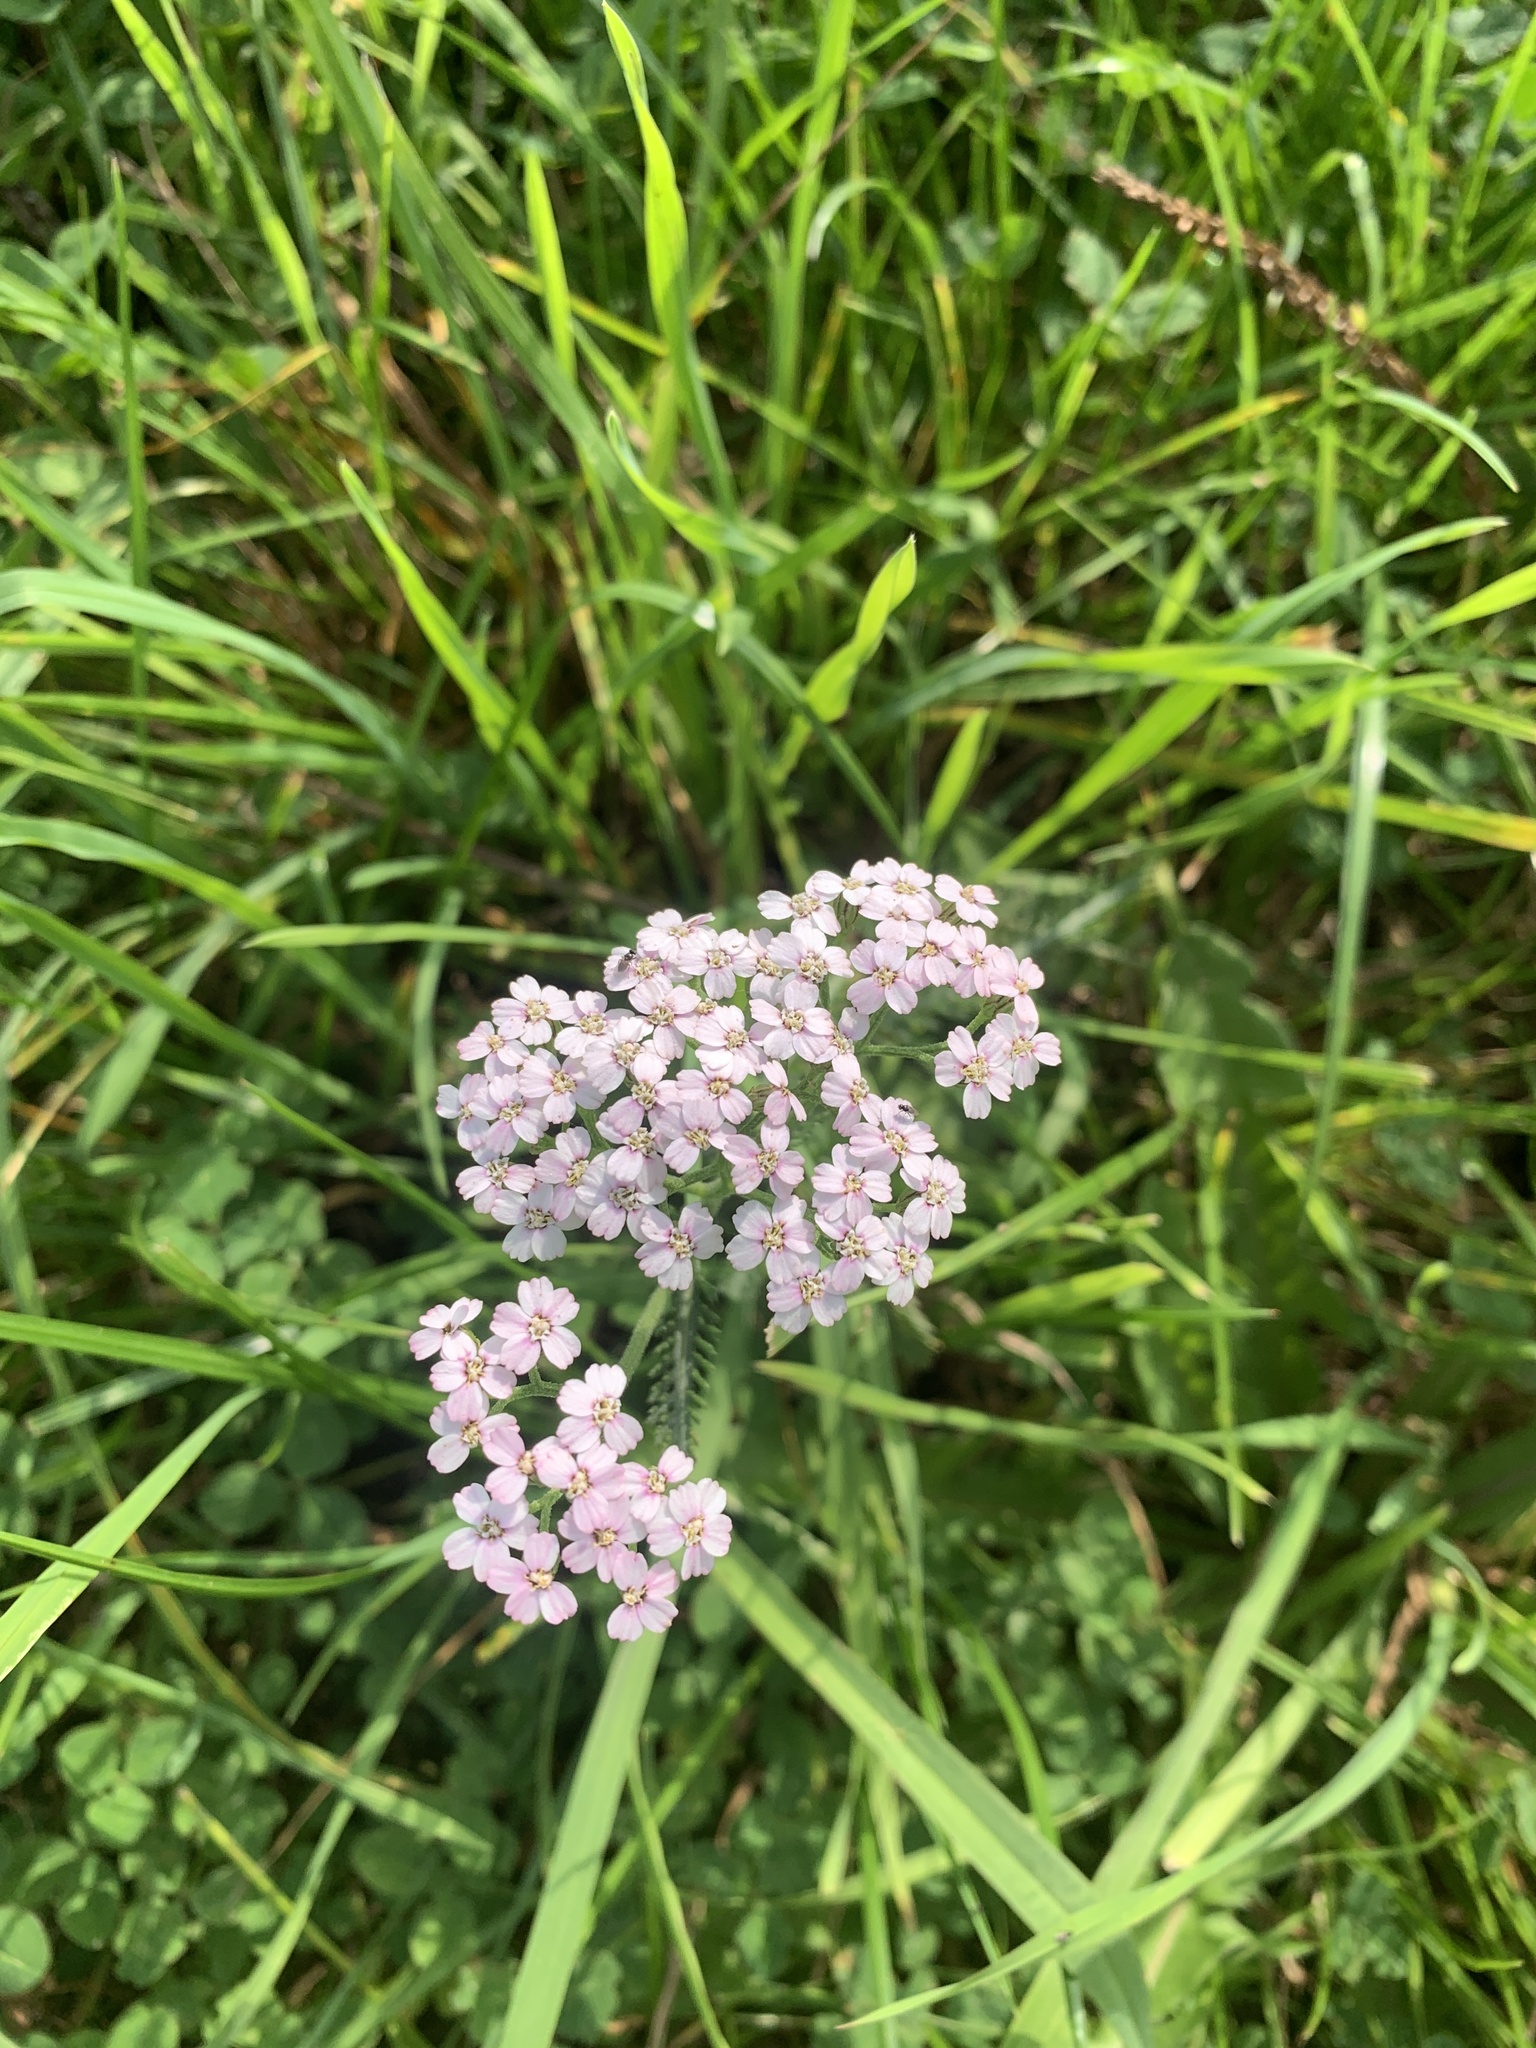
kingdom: Plantae
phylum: Tracheophyta
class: Magnoliopsida
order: Asterales
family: Asteraceae
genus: Achillea
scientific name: Achillea millefolium
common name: Yarrow
